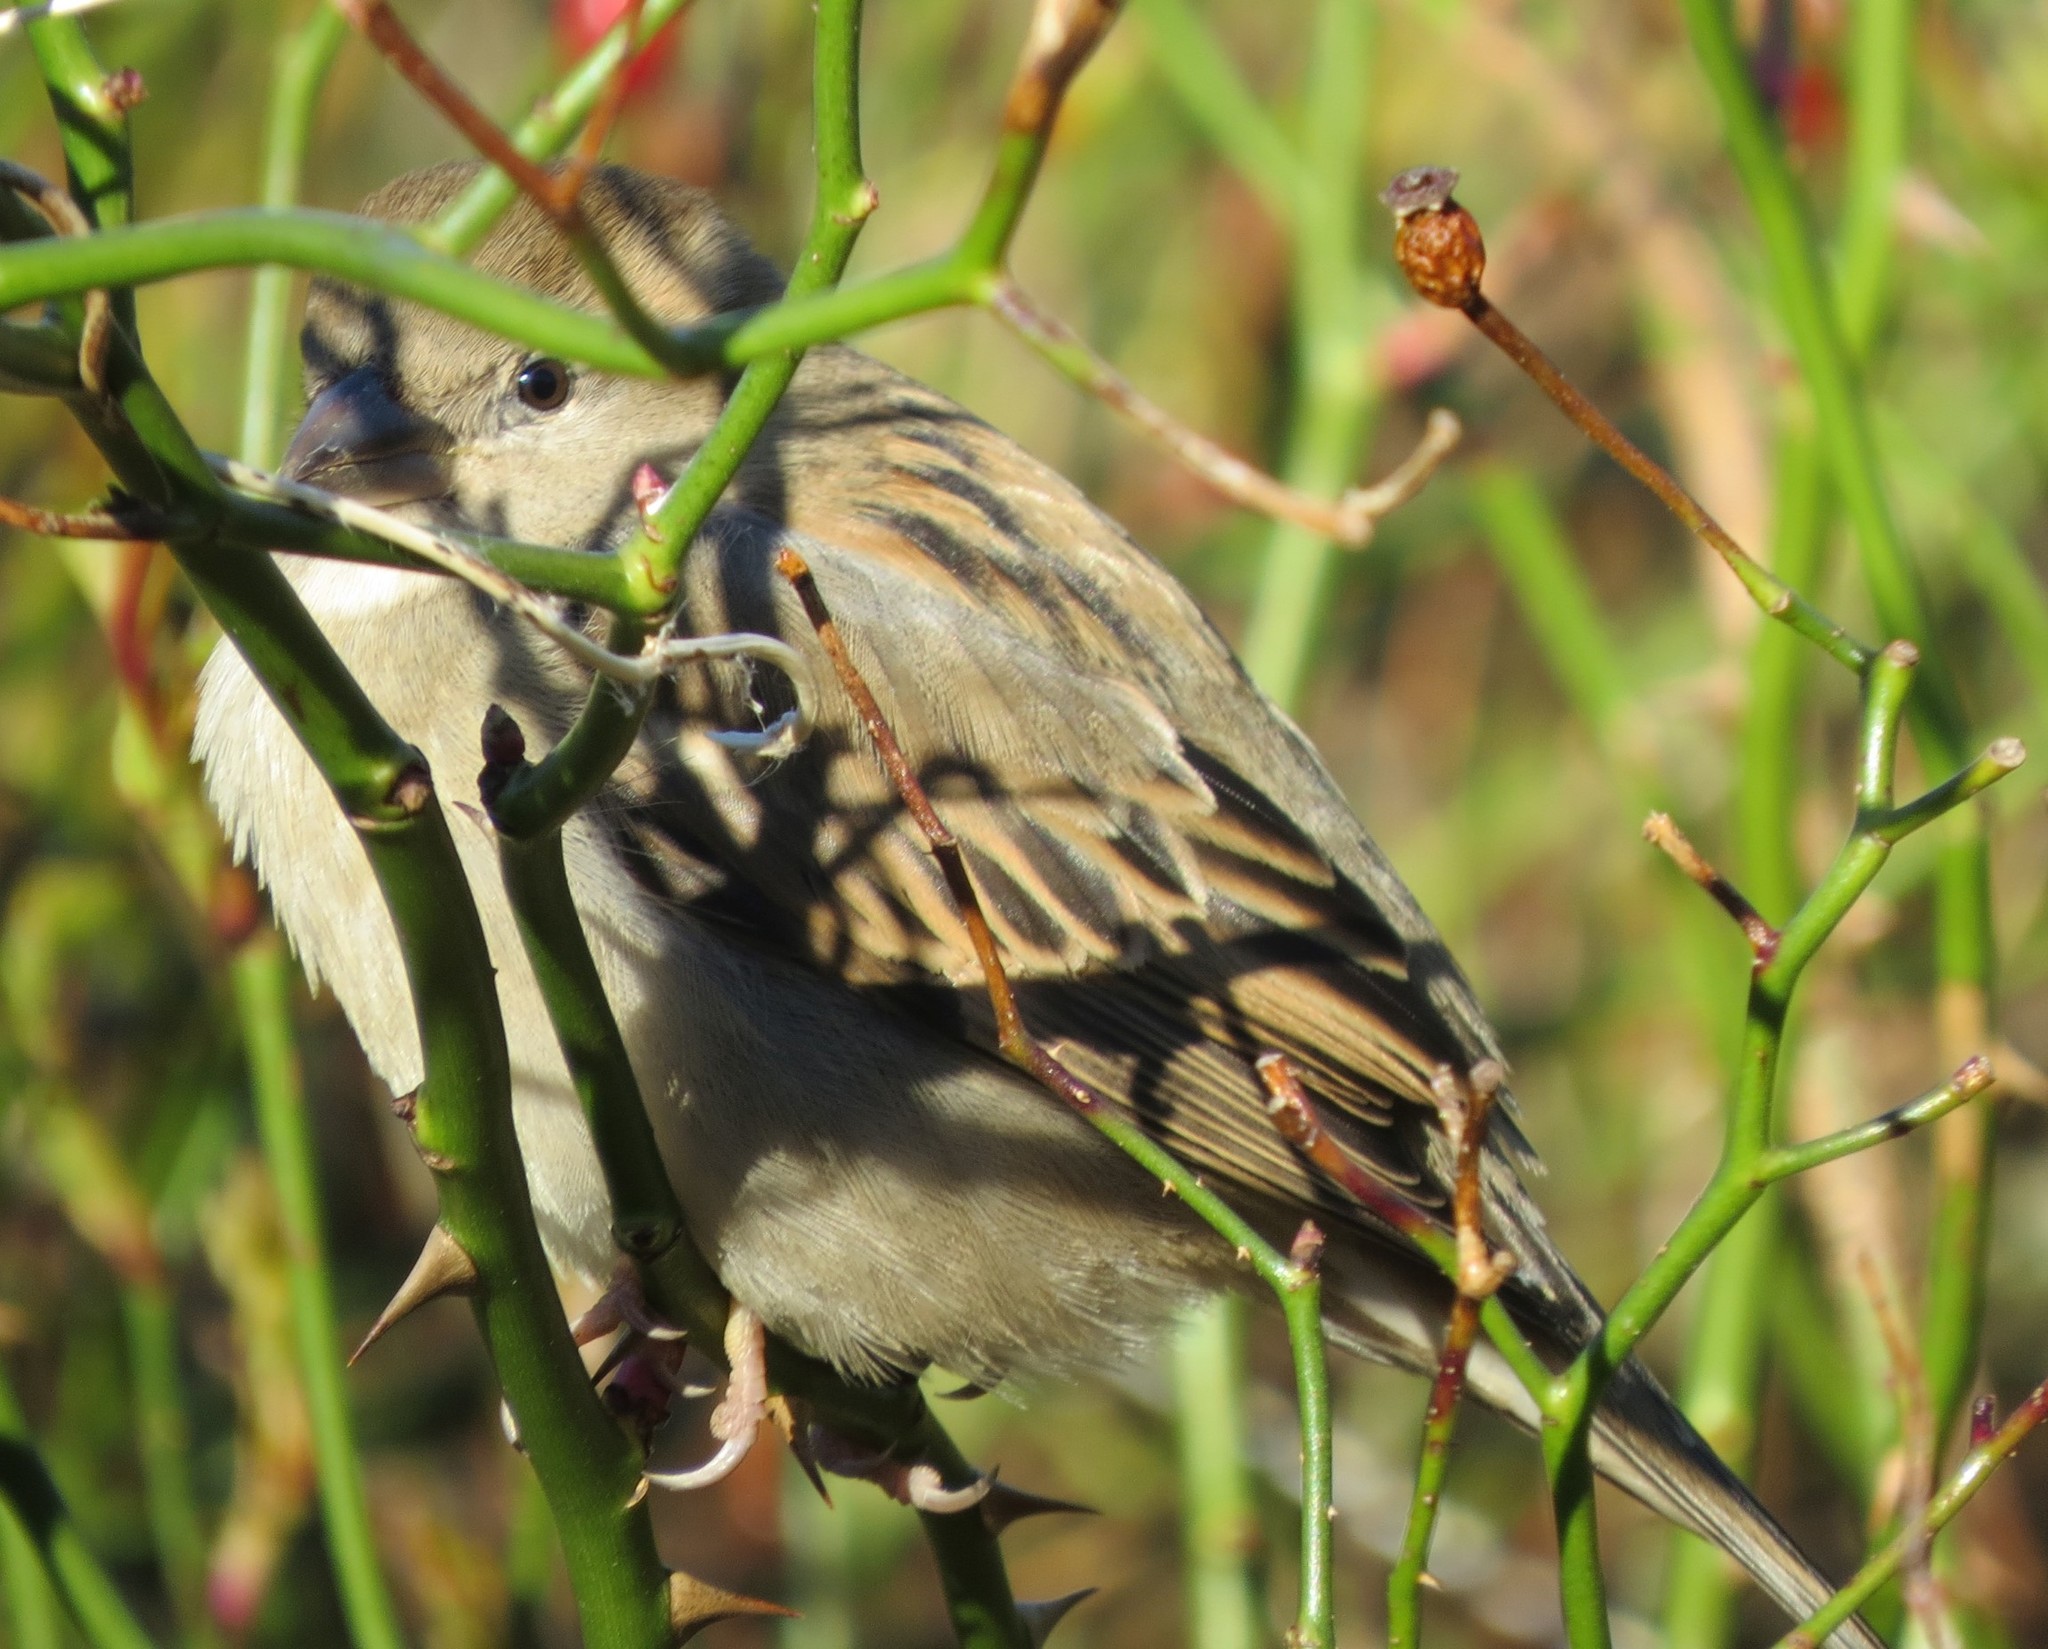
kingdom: Animalia
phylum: Chordata
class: Aves
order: Passeriformes
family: Passeridae
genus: Passer
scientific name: Passer domesticus
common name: House sparrow
